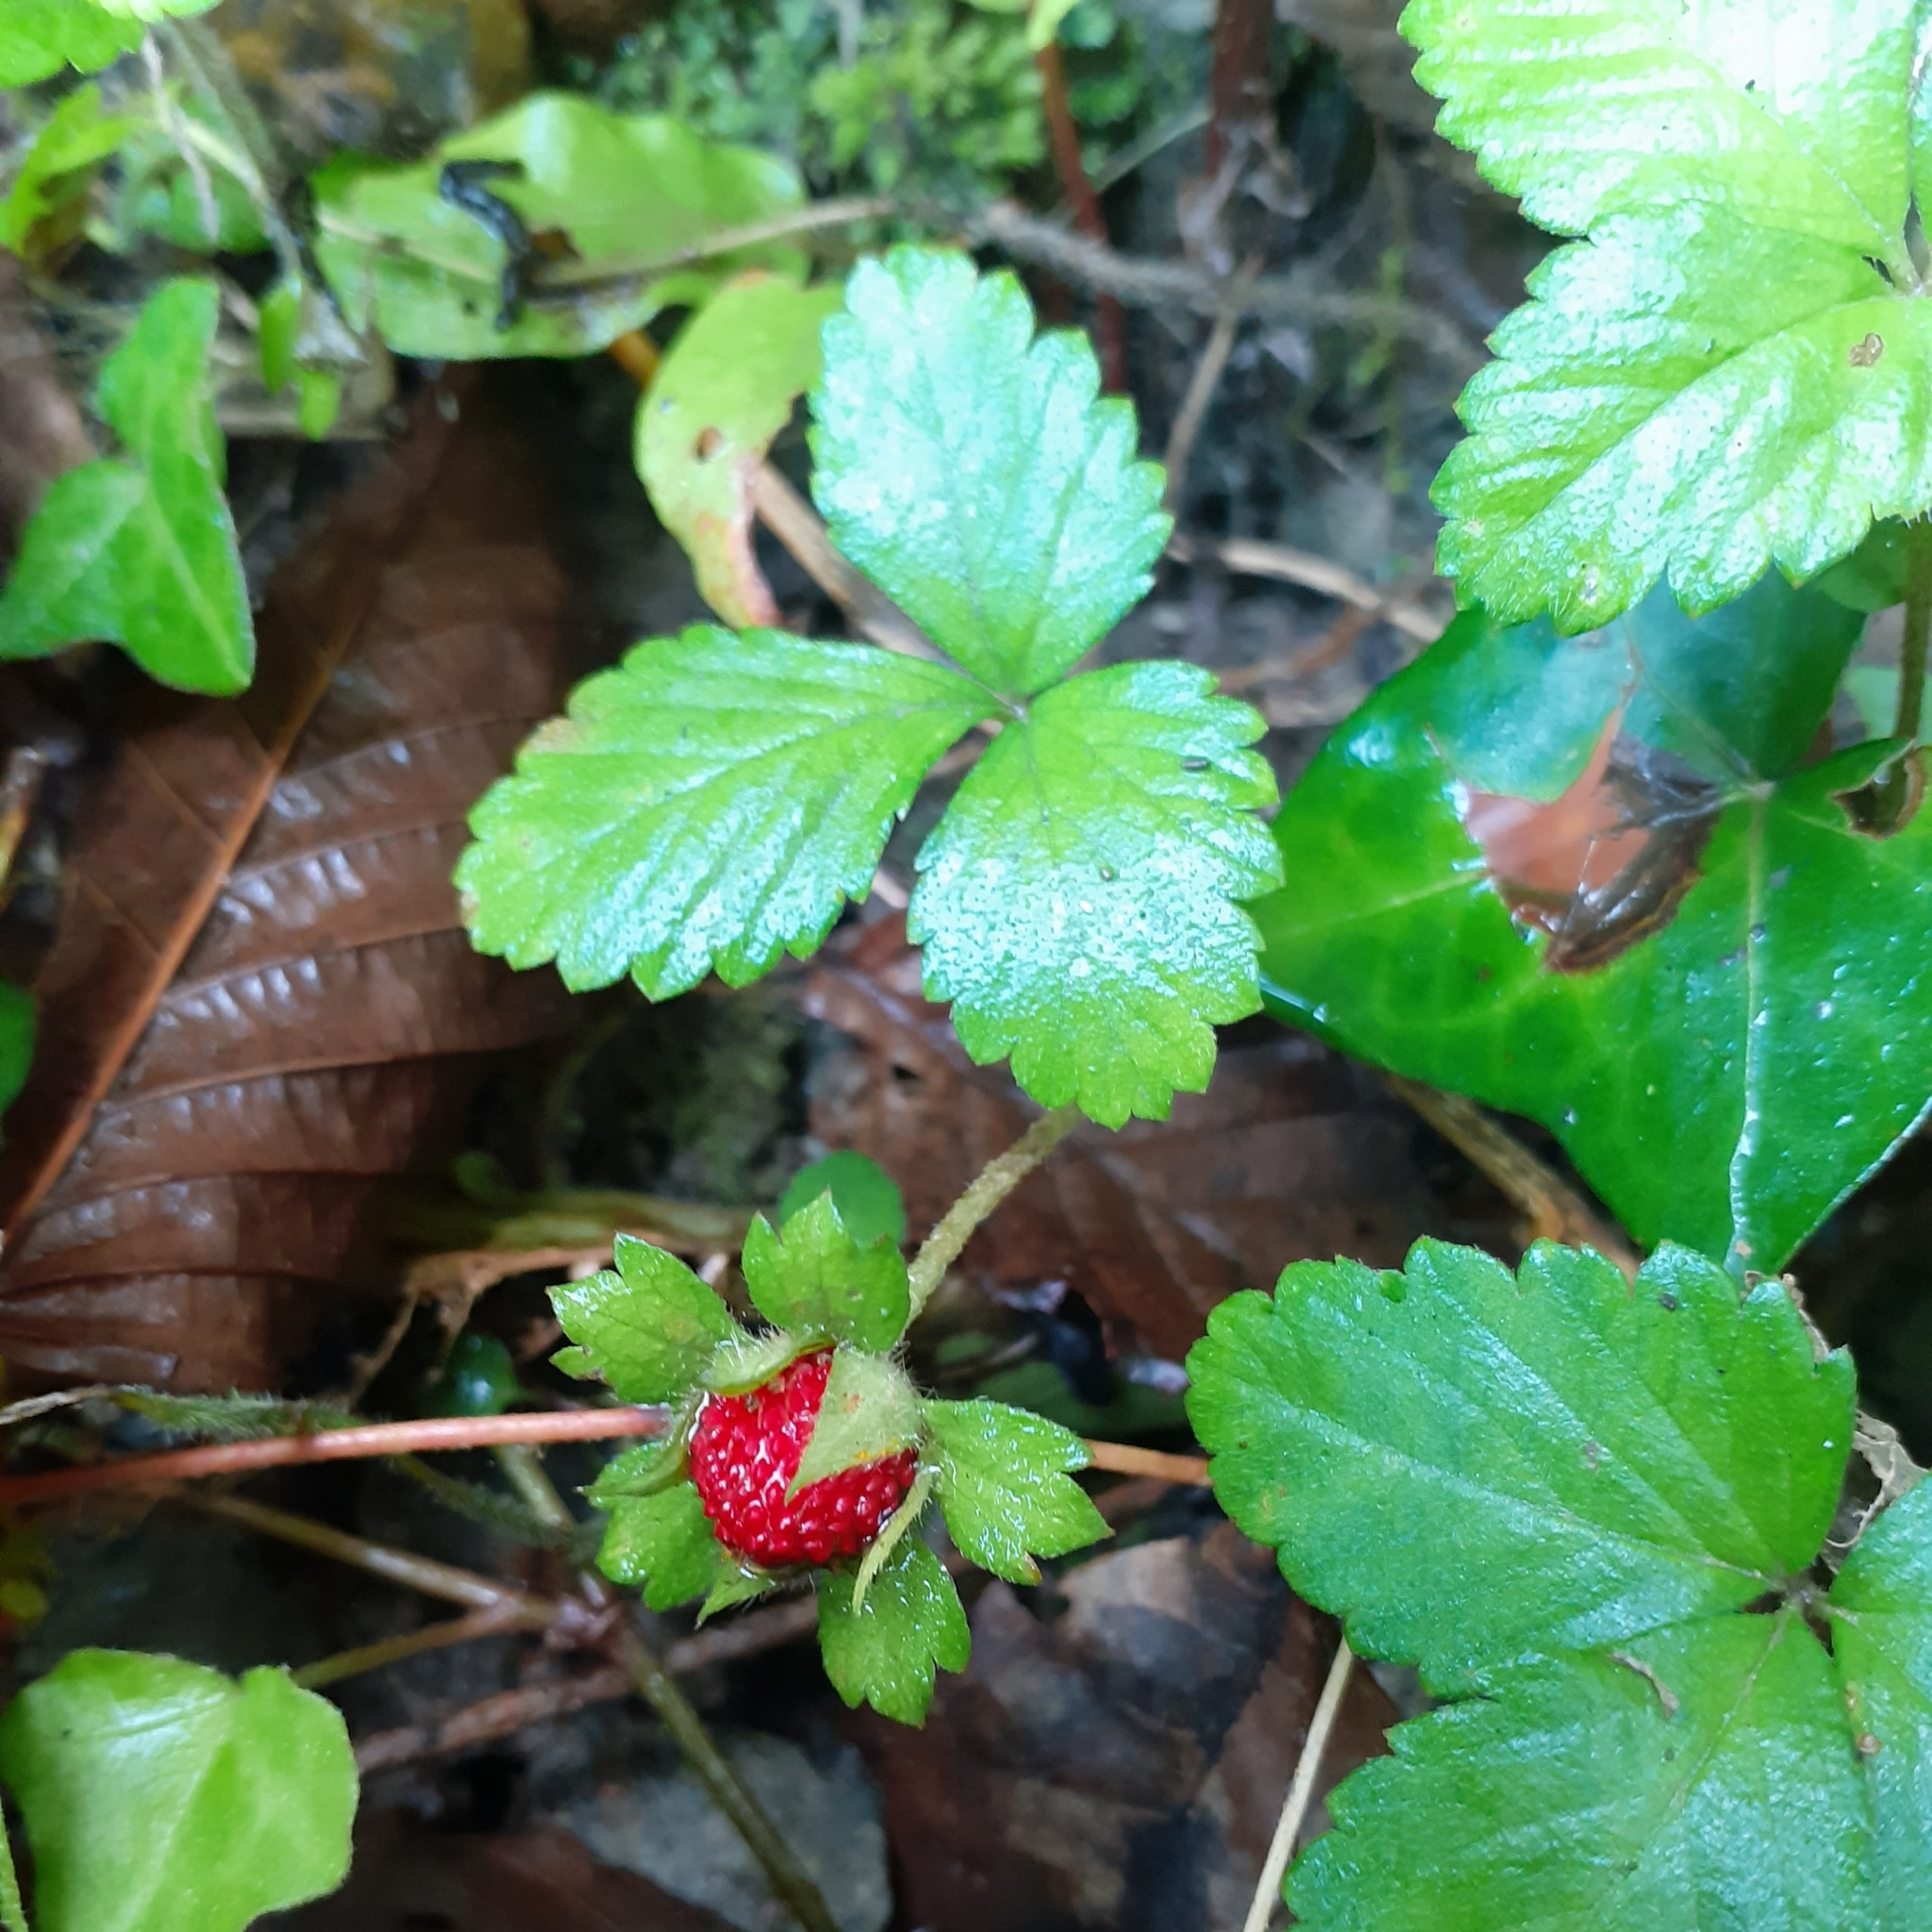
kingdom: Plantae
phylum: Tracheophyta
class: Magnoliopsida
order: Rosales
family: Rosaceae
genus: Potentilla
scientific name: Potentilla indica
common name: Yellow-flowered strawberry
